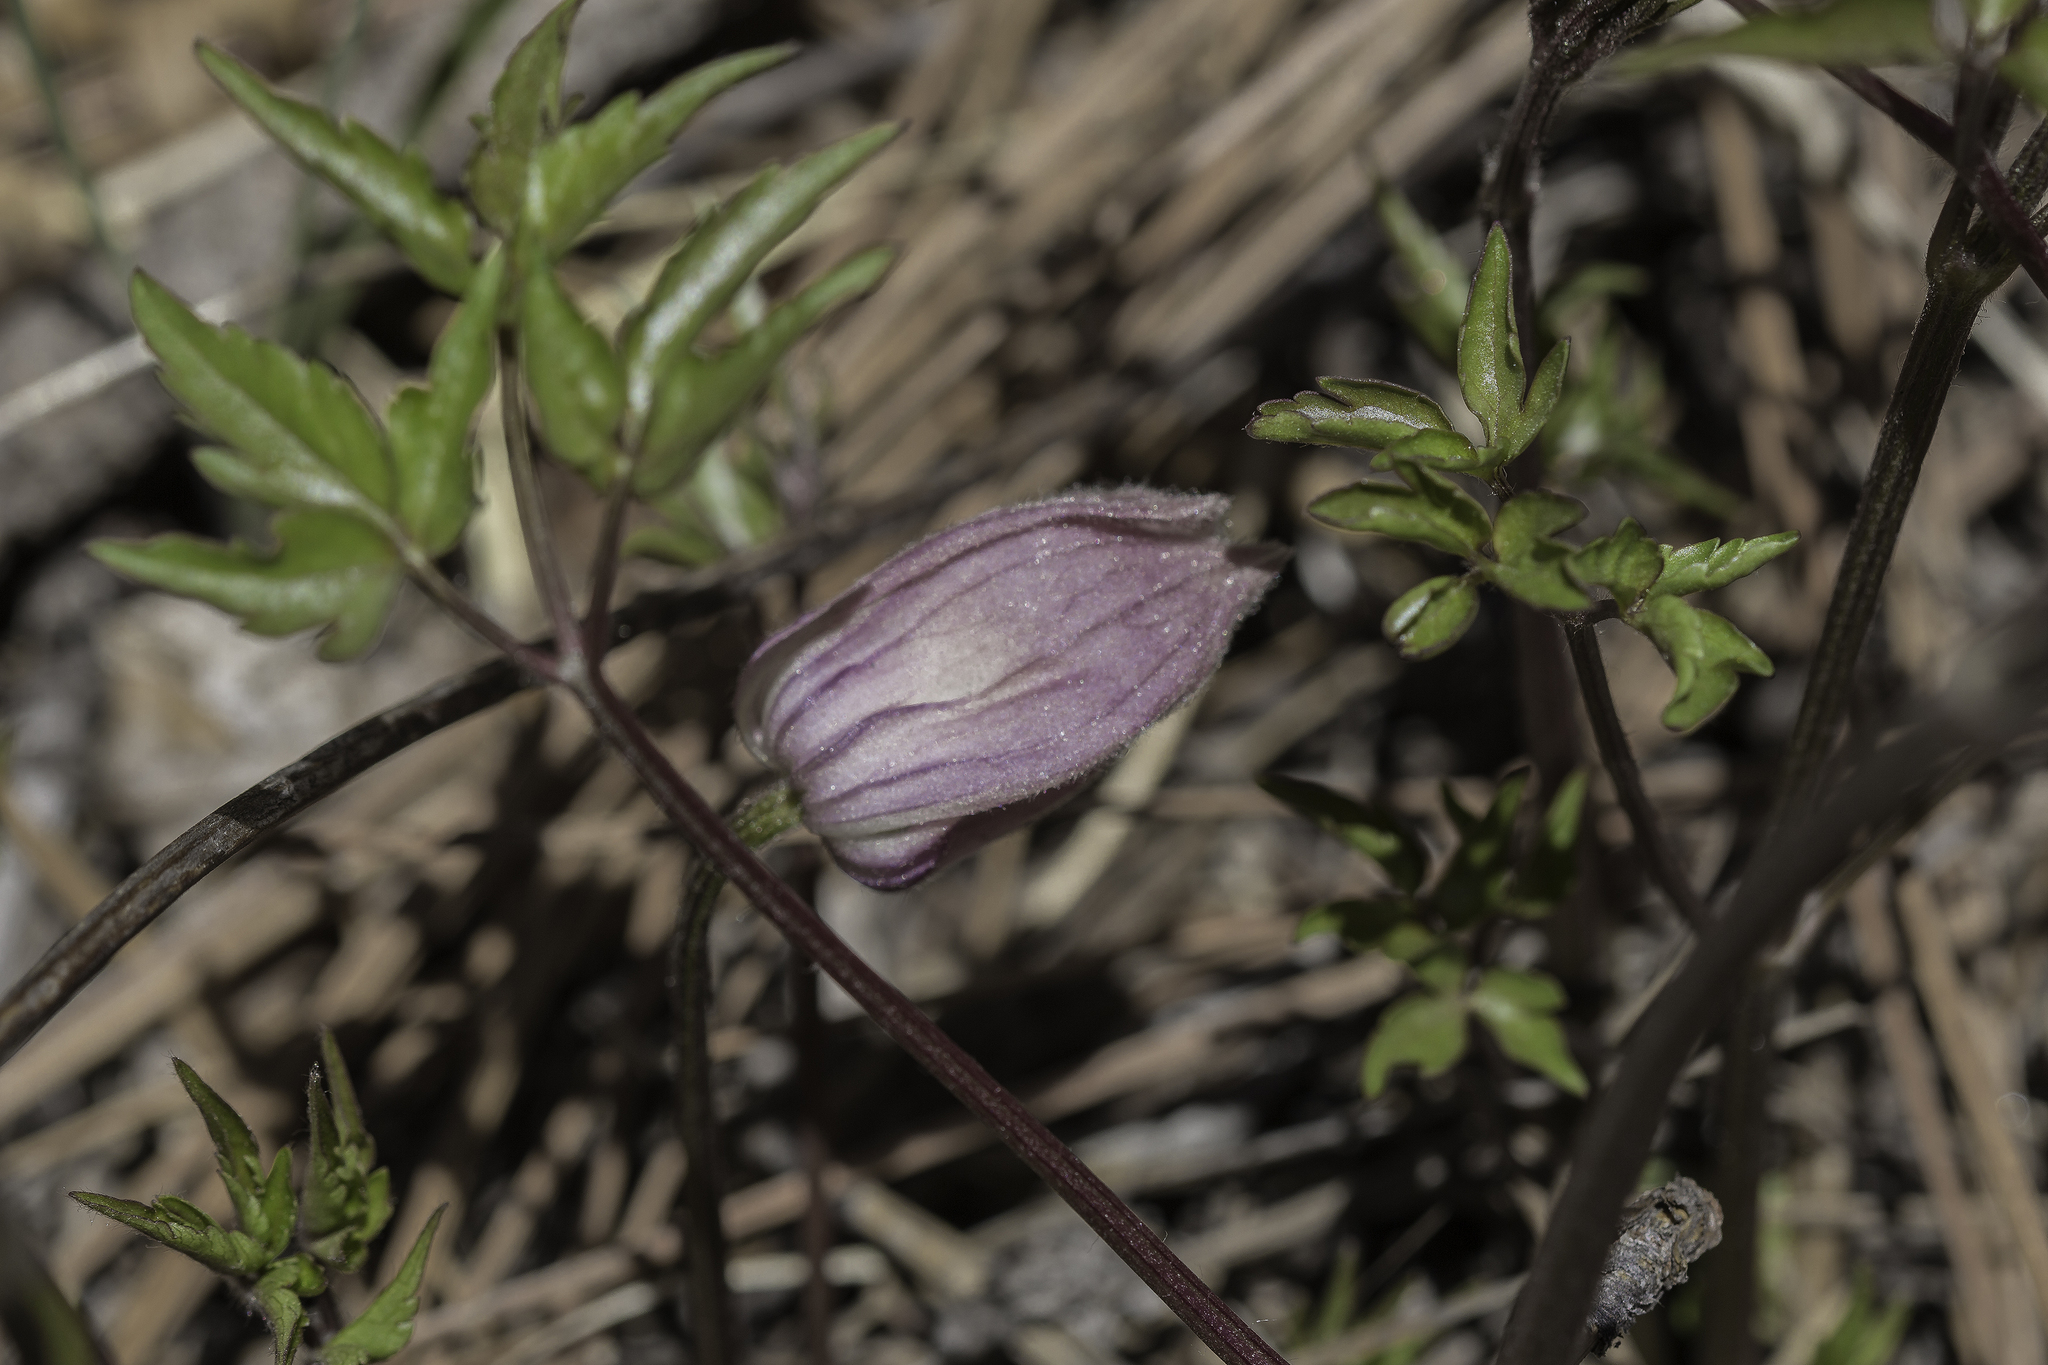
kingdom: Plantae
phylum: Tracheophyta
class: Magnoliopsida
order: Ranunculales
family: Ranunculaceae
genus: Clematis
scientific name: Clematis columbiana
